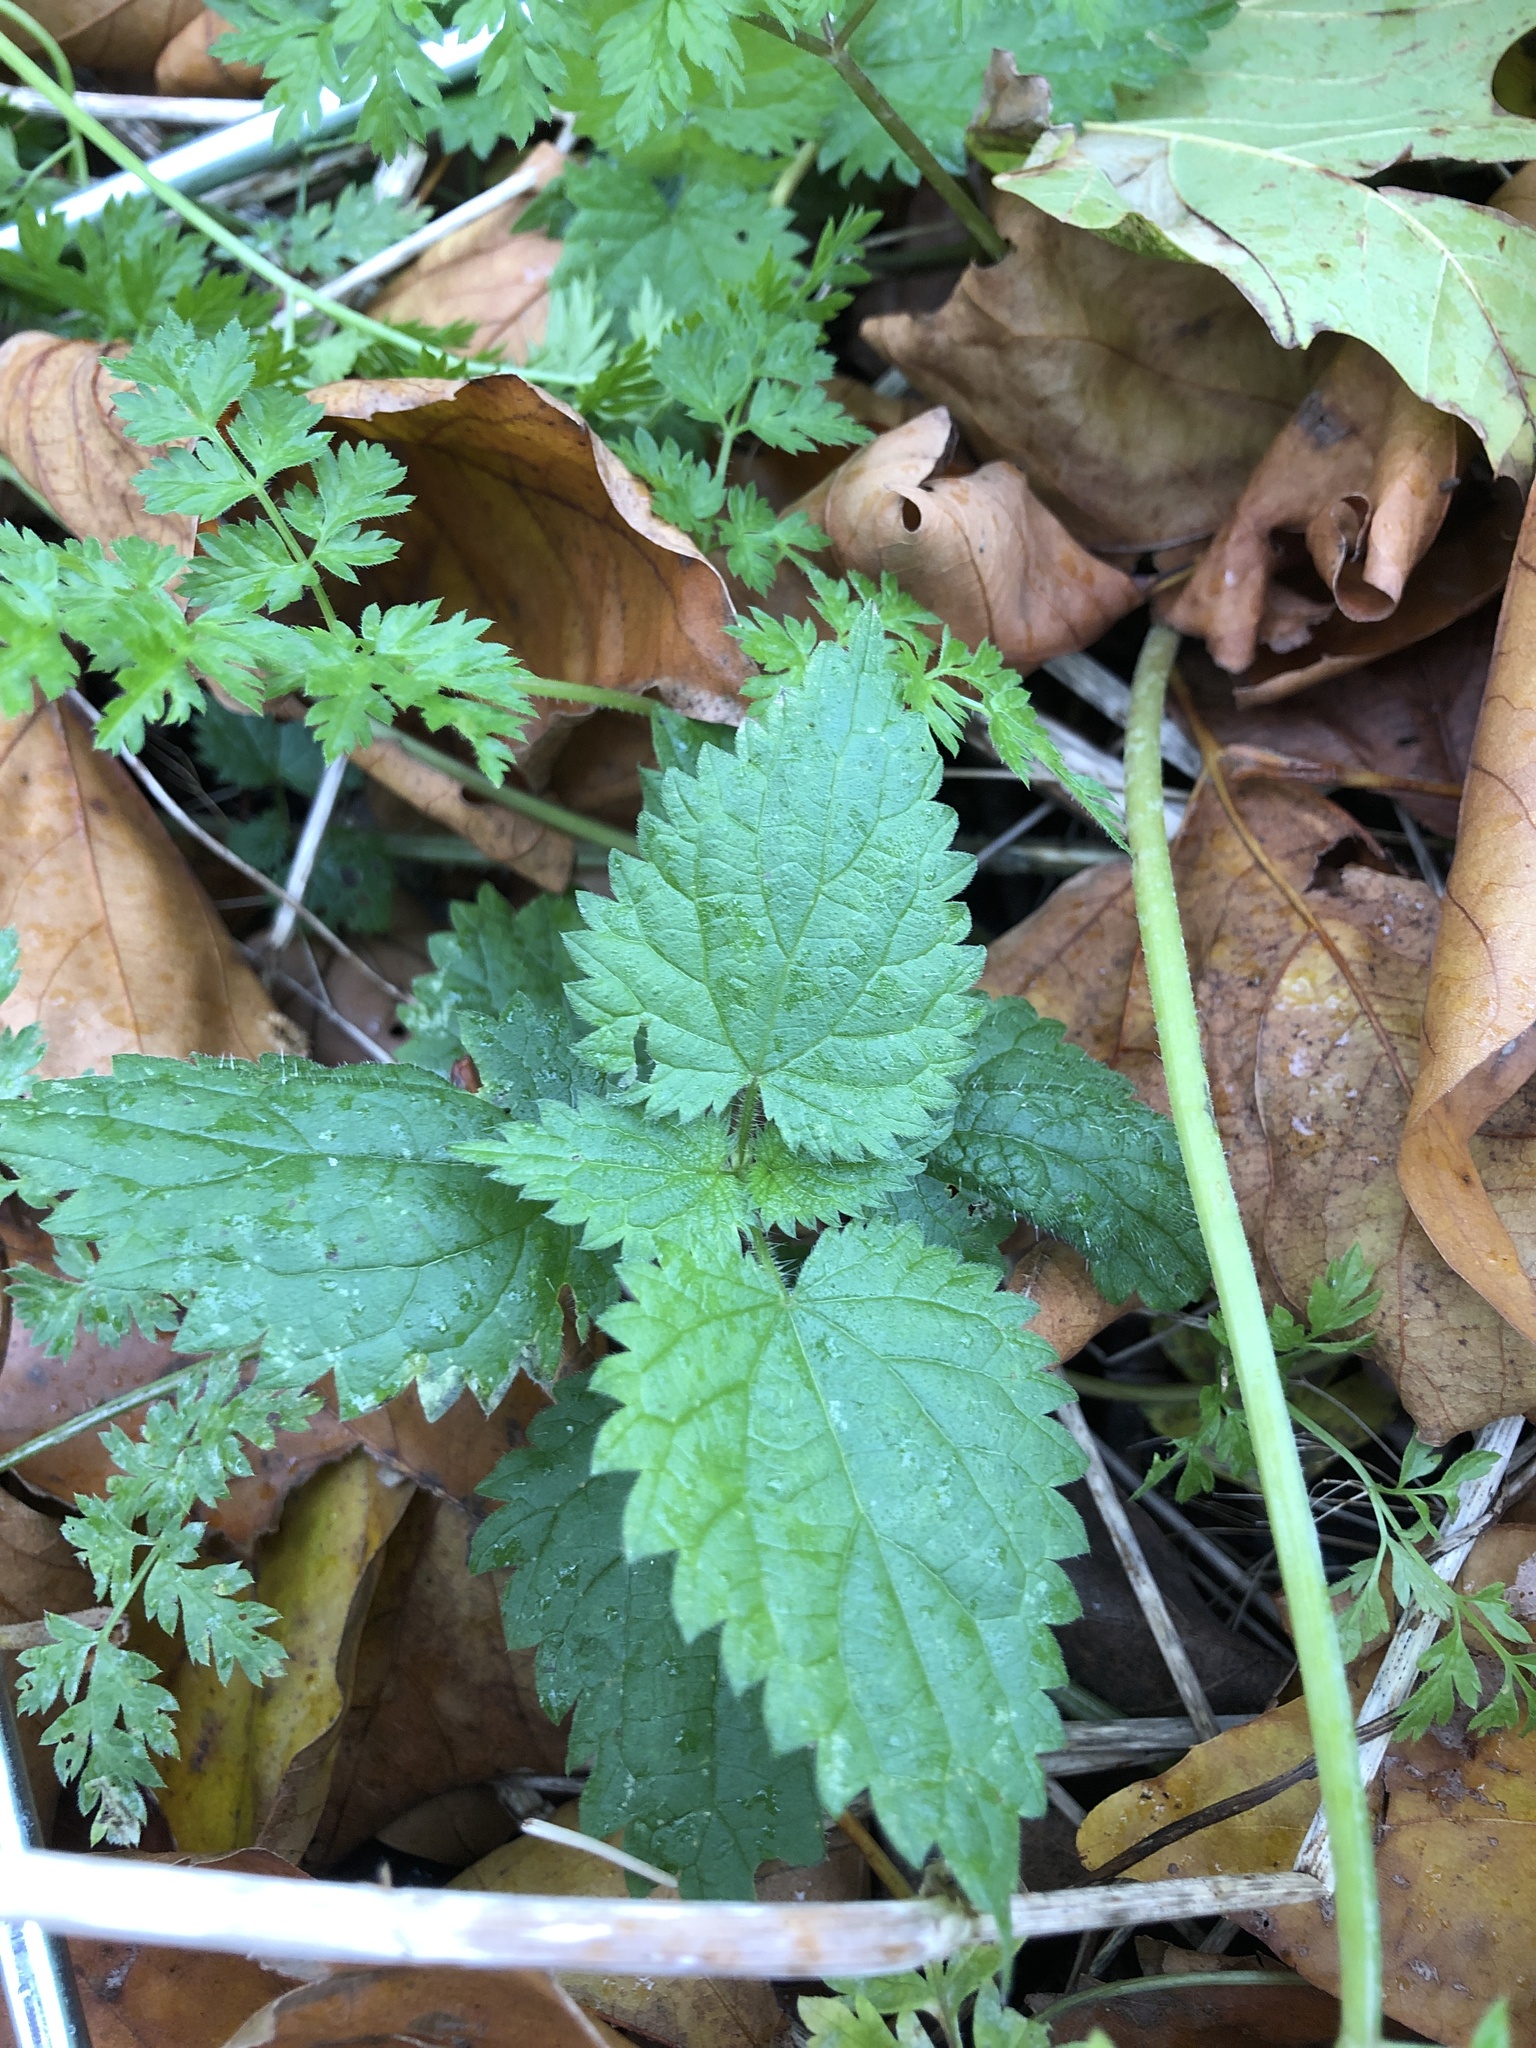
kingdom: Plantae
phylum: Tracheophyta
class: Magnoliopsida
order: Rosales
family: Urticaceae
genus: Urtica
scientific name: Urtica dioica
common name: Common nettle
